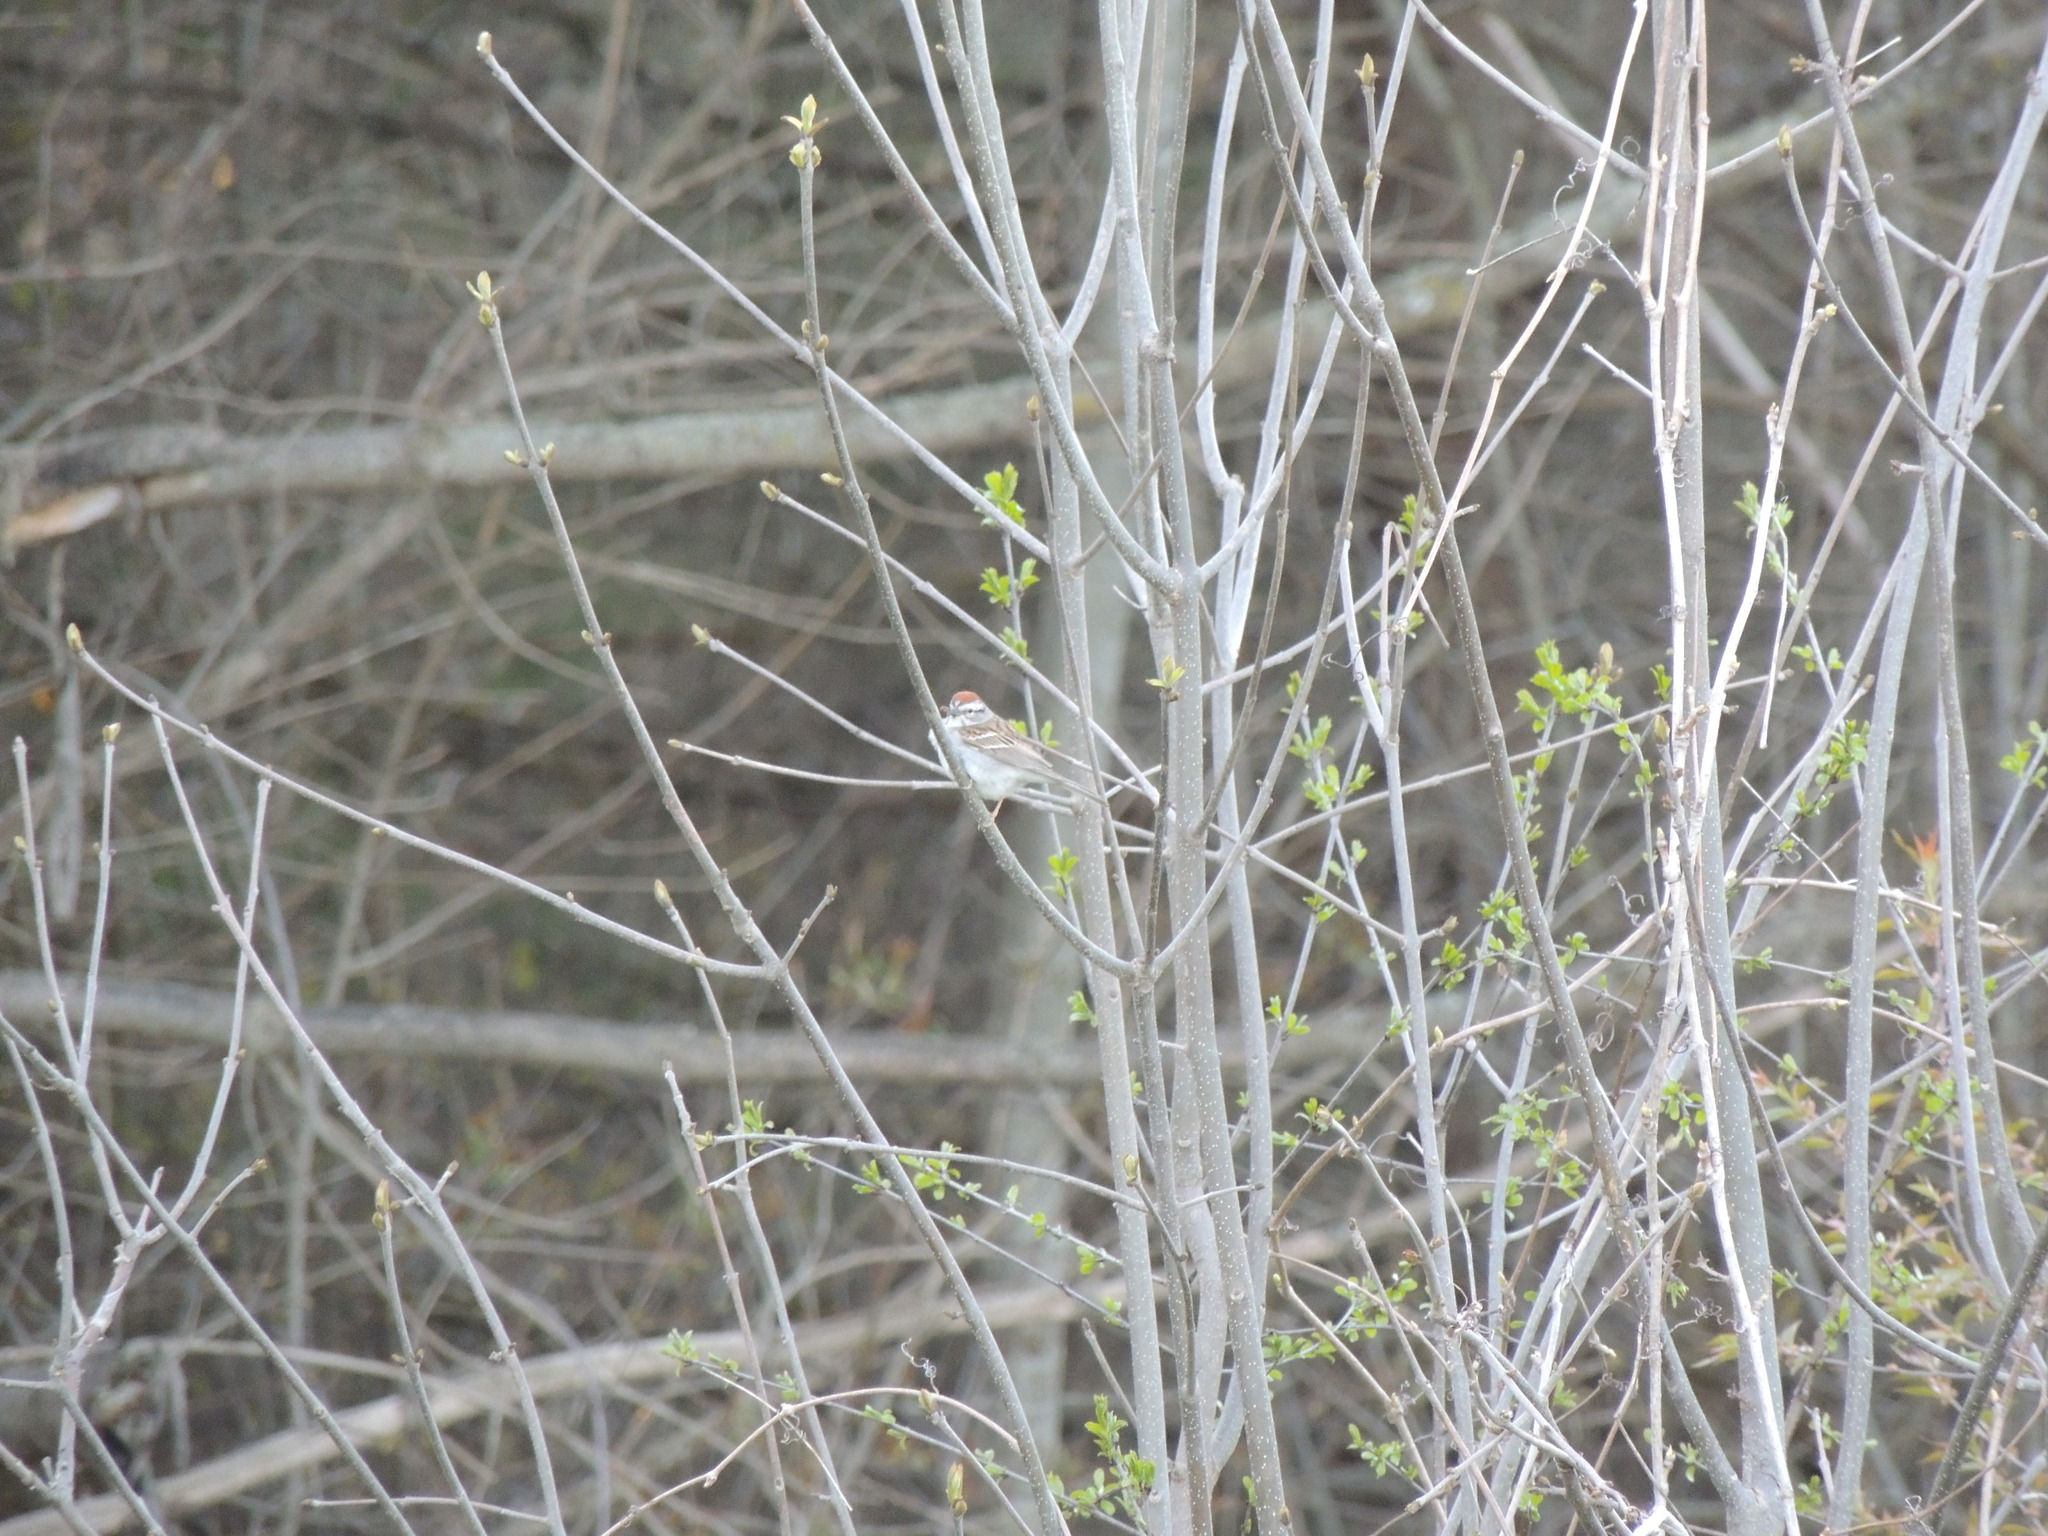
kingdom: Animalia
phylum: Chordata
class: Aves
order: Passeriformes
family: Passerellidae
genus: Spizella
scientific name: Spizella passerina
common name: Chipping sparrow
